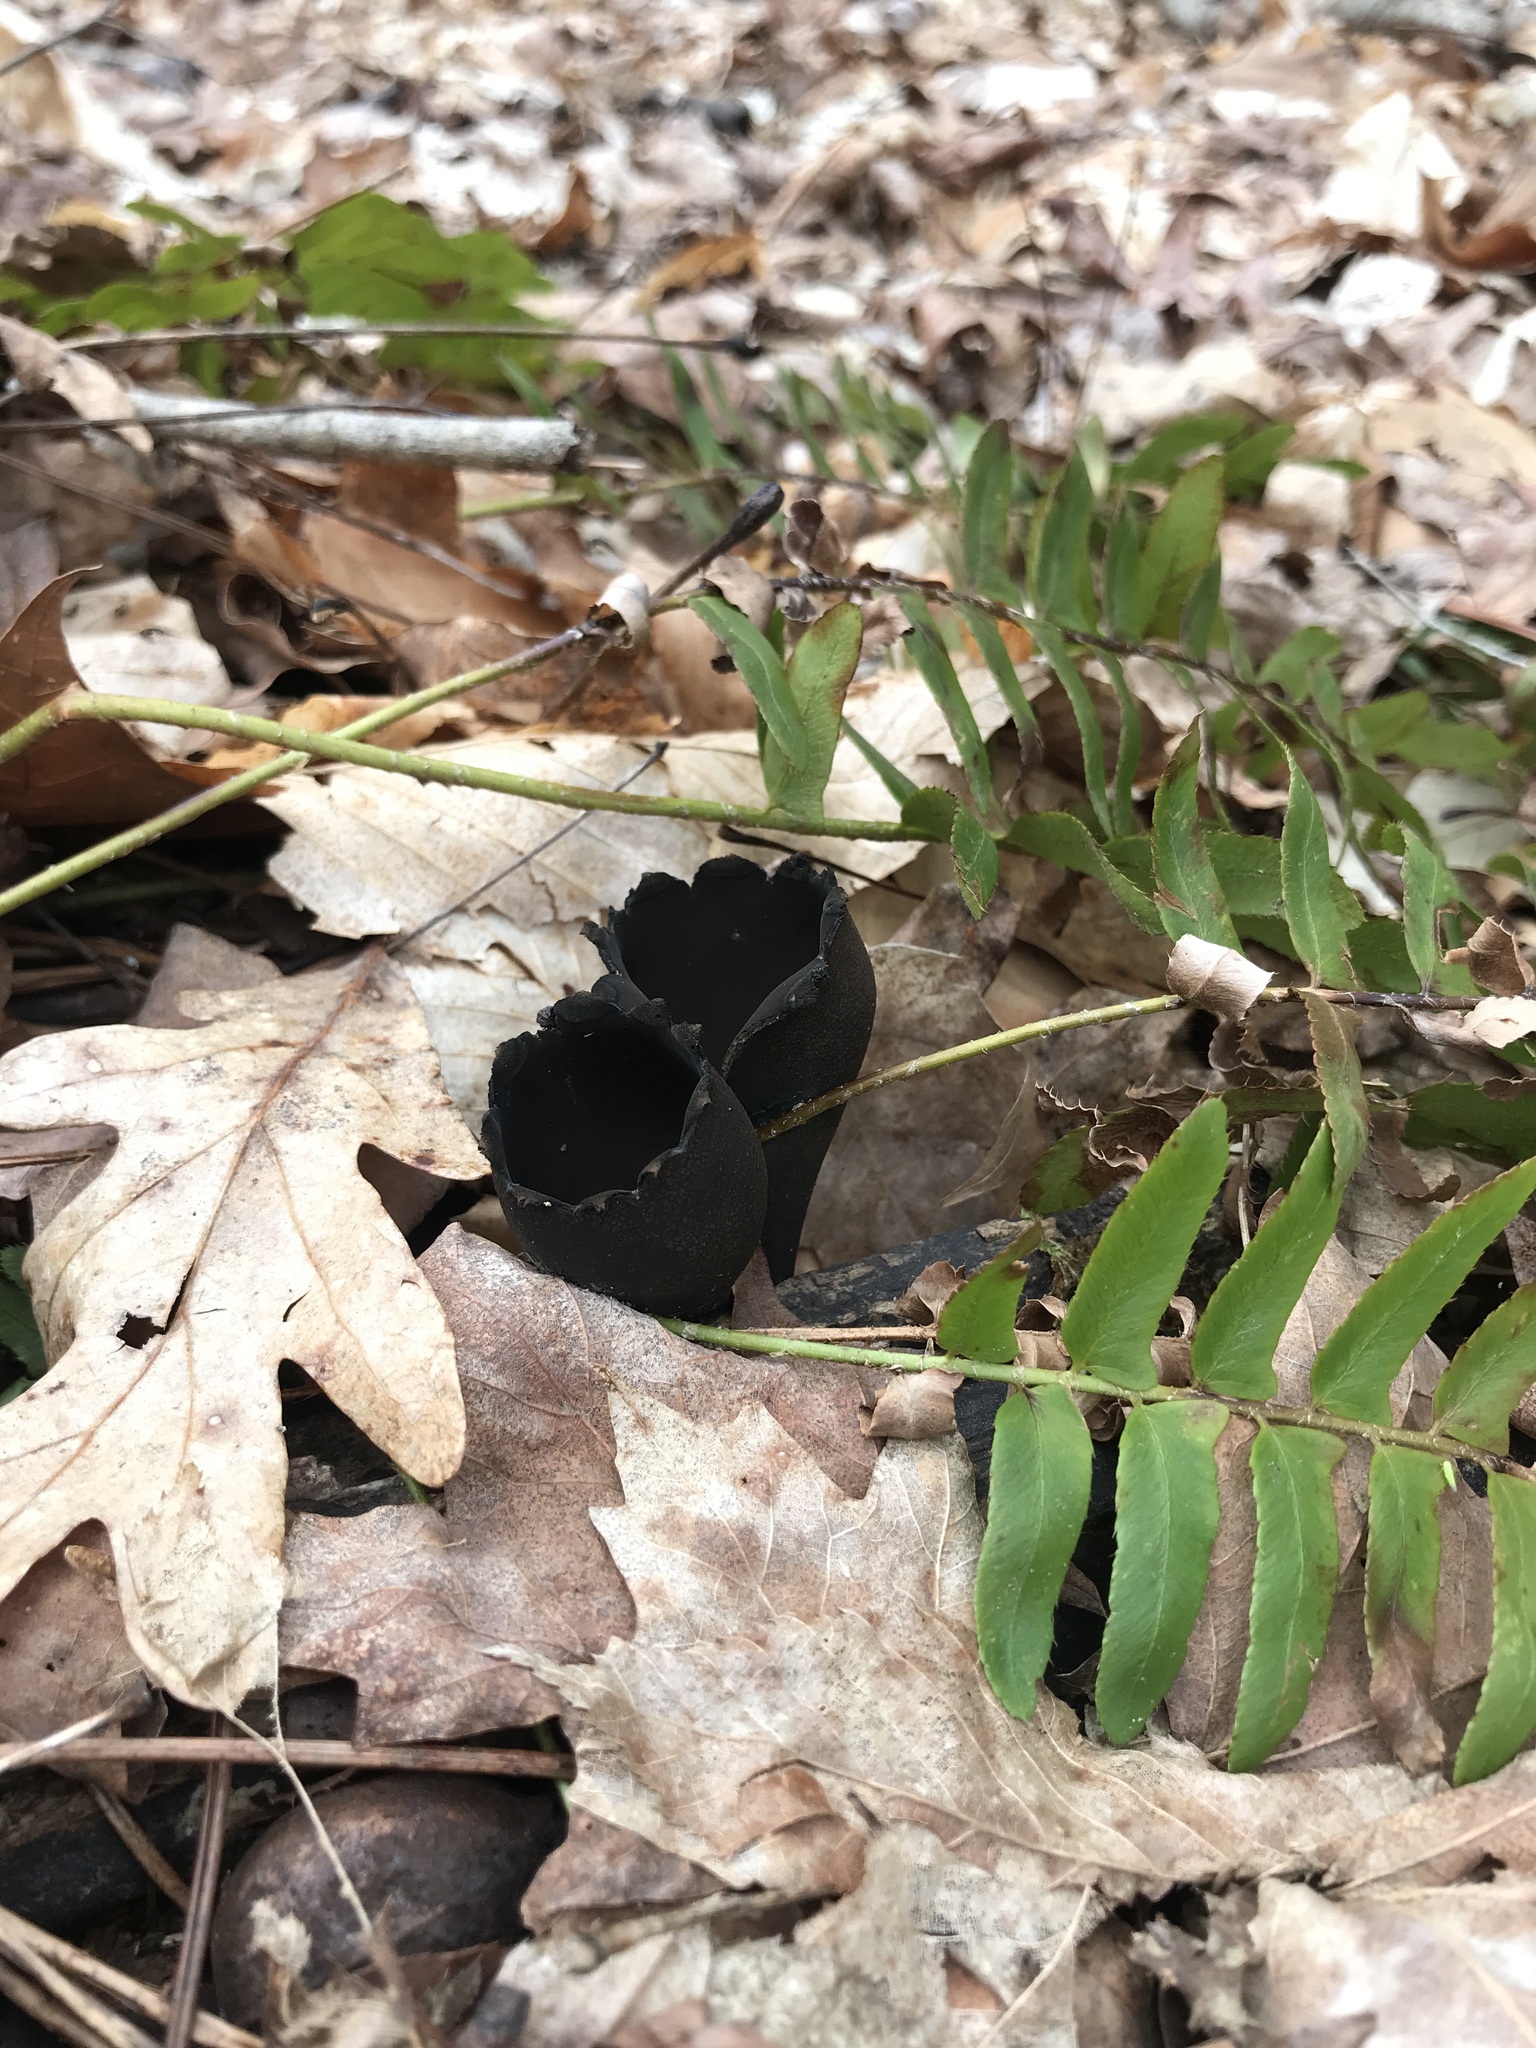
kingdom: Fungi
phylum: Ascomycota
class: Pezizomycetes
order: Pezizales
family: Sarcosomataceae
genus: Urnula
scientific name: Urnula craterium
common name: Devil's urn
